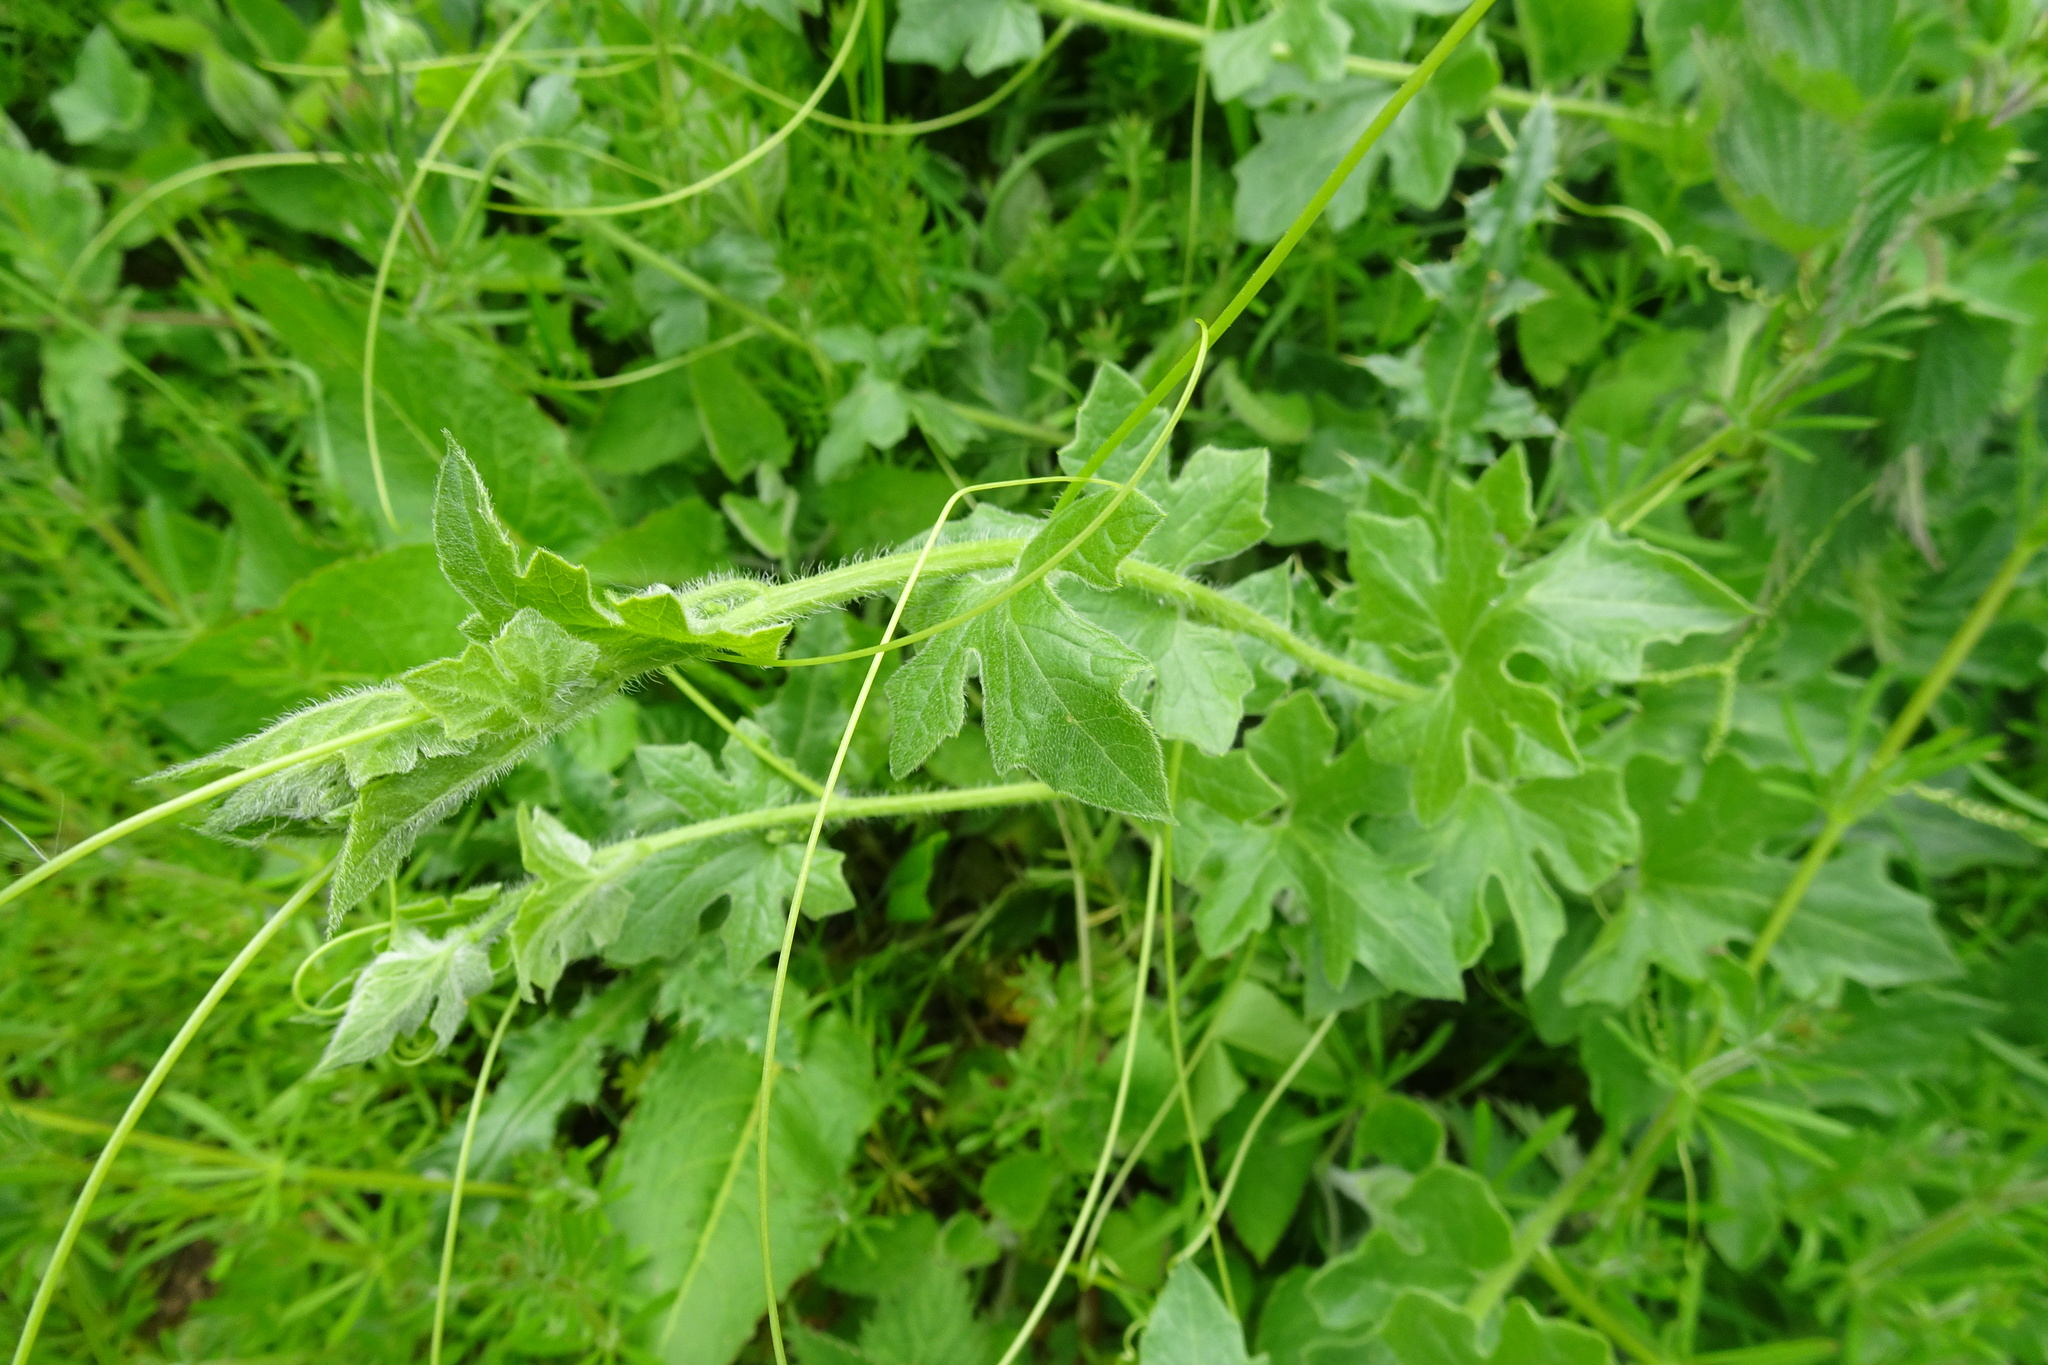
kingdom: Plantae
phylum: Tracheophyta
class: Magnoliopsida
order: Cucurbitales
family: Cucurbitaceae
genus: Bryonia
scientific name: Bryonia cretica
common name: Cretan bryony
